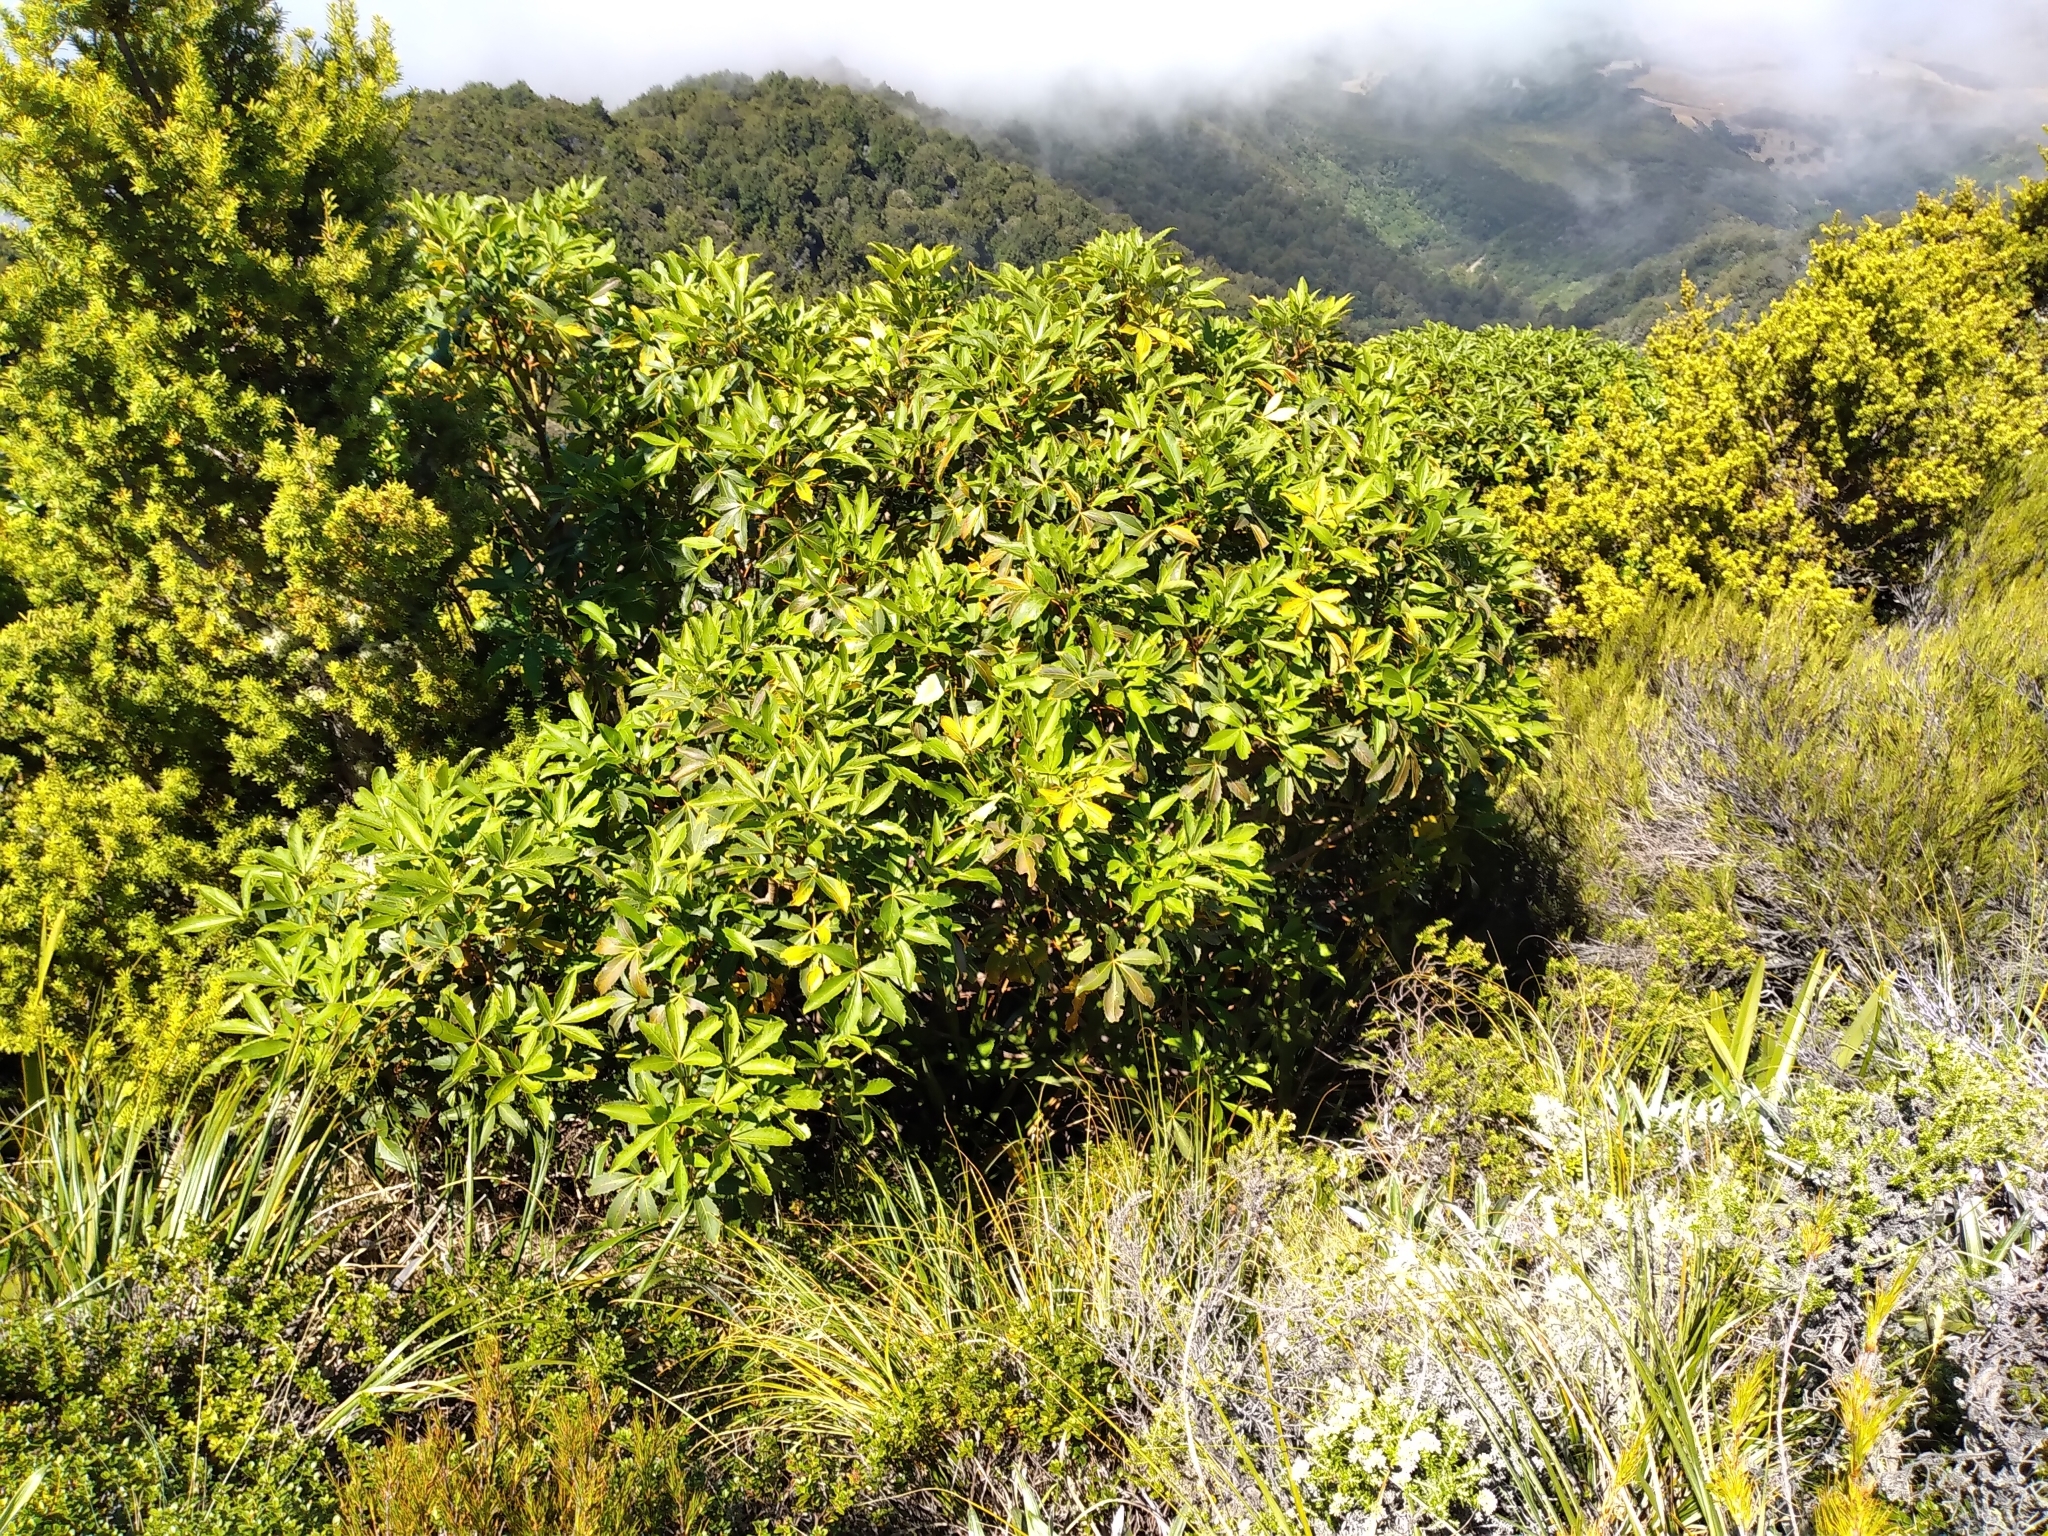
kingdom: Plantae
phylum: Tracheophyta
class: Magnoliopsida
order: Apiales
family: Araliaceae
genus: Neopanax
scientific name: Neopanax colensoi
